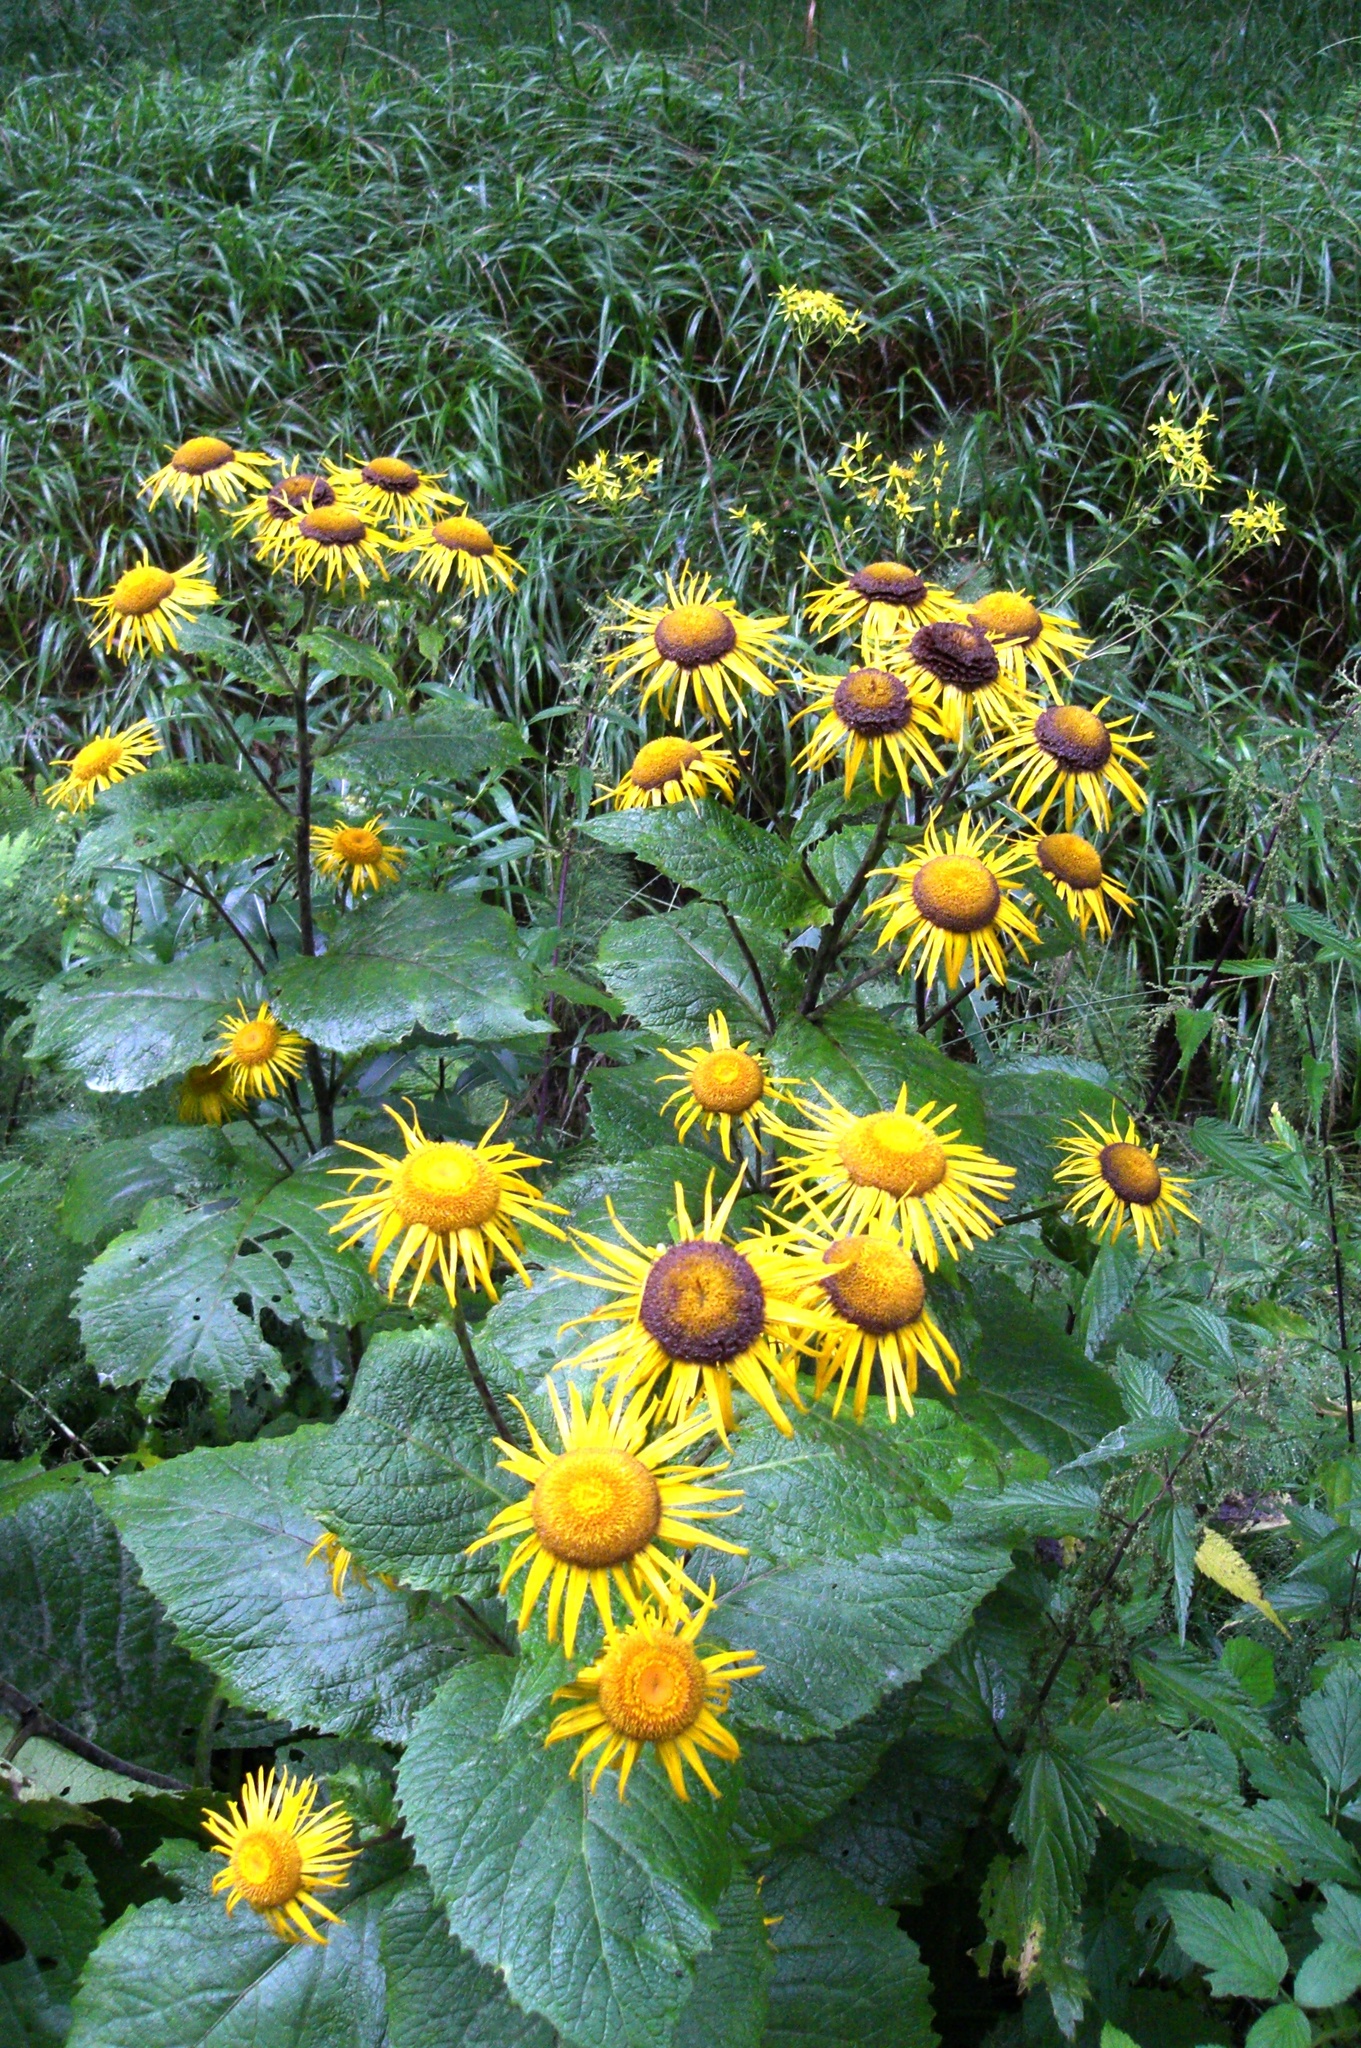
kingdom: Plantae
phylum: Tracheophyta
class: Magnoliopsida
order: Asterales
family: Asteraceae
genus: Telekia
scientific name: Telekia speciosa
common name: Yellow oxeye
